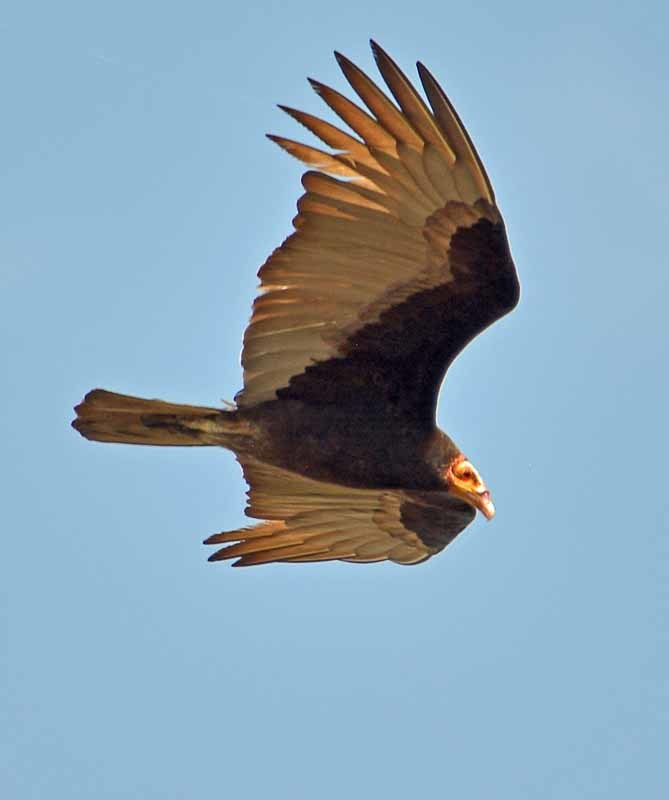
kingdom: Animalia
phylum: Chordata
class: Aves
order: Accipitriformes
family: Cathartidae
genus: Cathartes
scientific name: Cathartes burrovianus
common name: Lesser yellow-headed vulture
